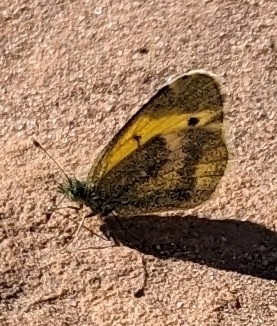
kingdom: Animalia
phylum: Arthropoda
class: Insecta
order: Lepidoptera
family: Pieridae
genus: Nathalis
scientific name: Nathalis iole
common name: Dainty sulphur
